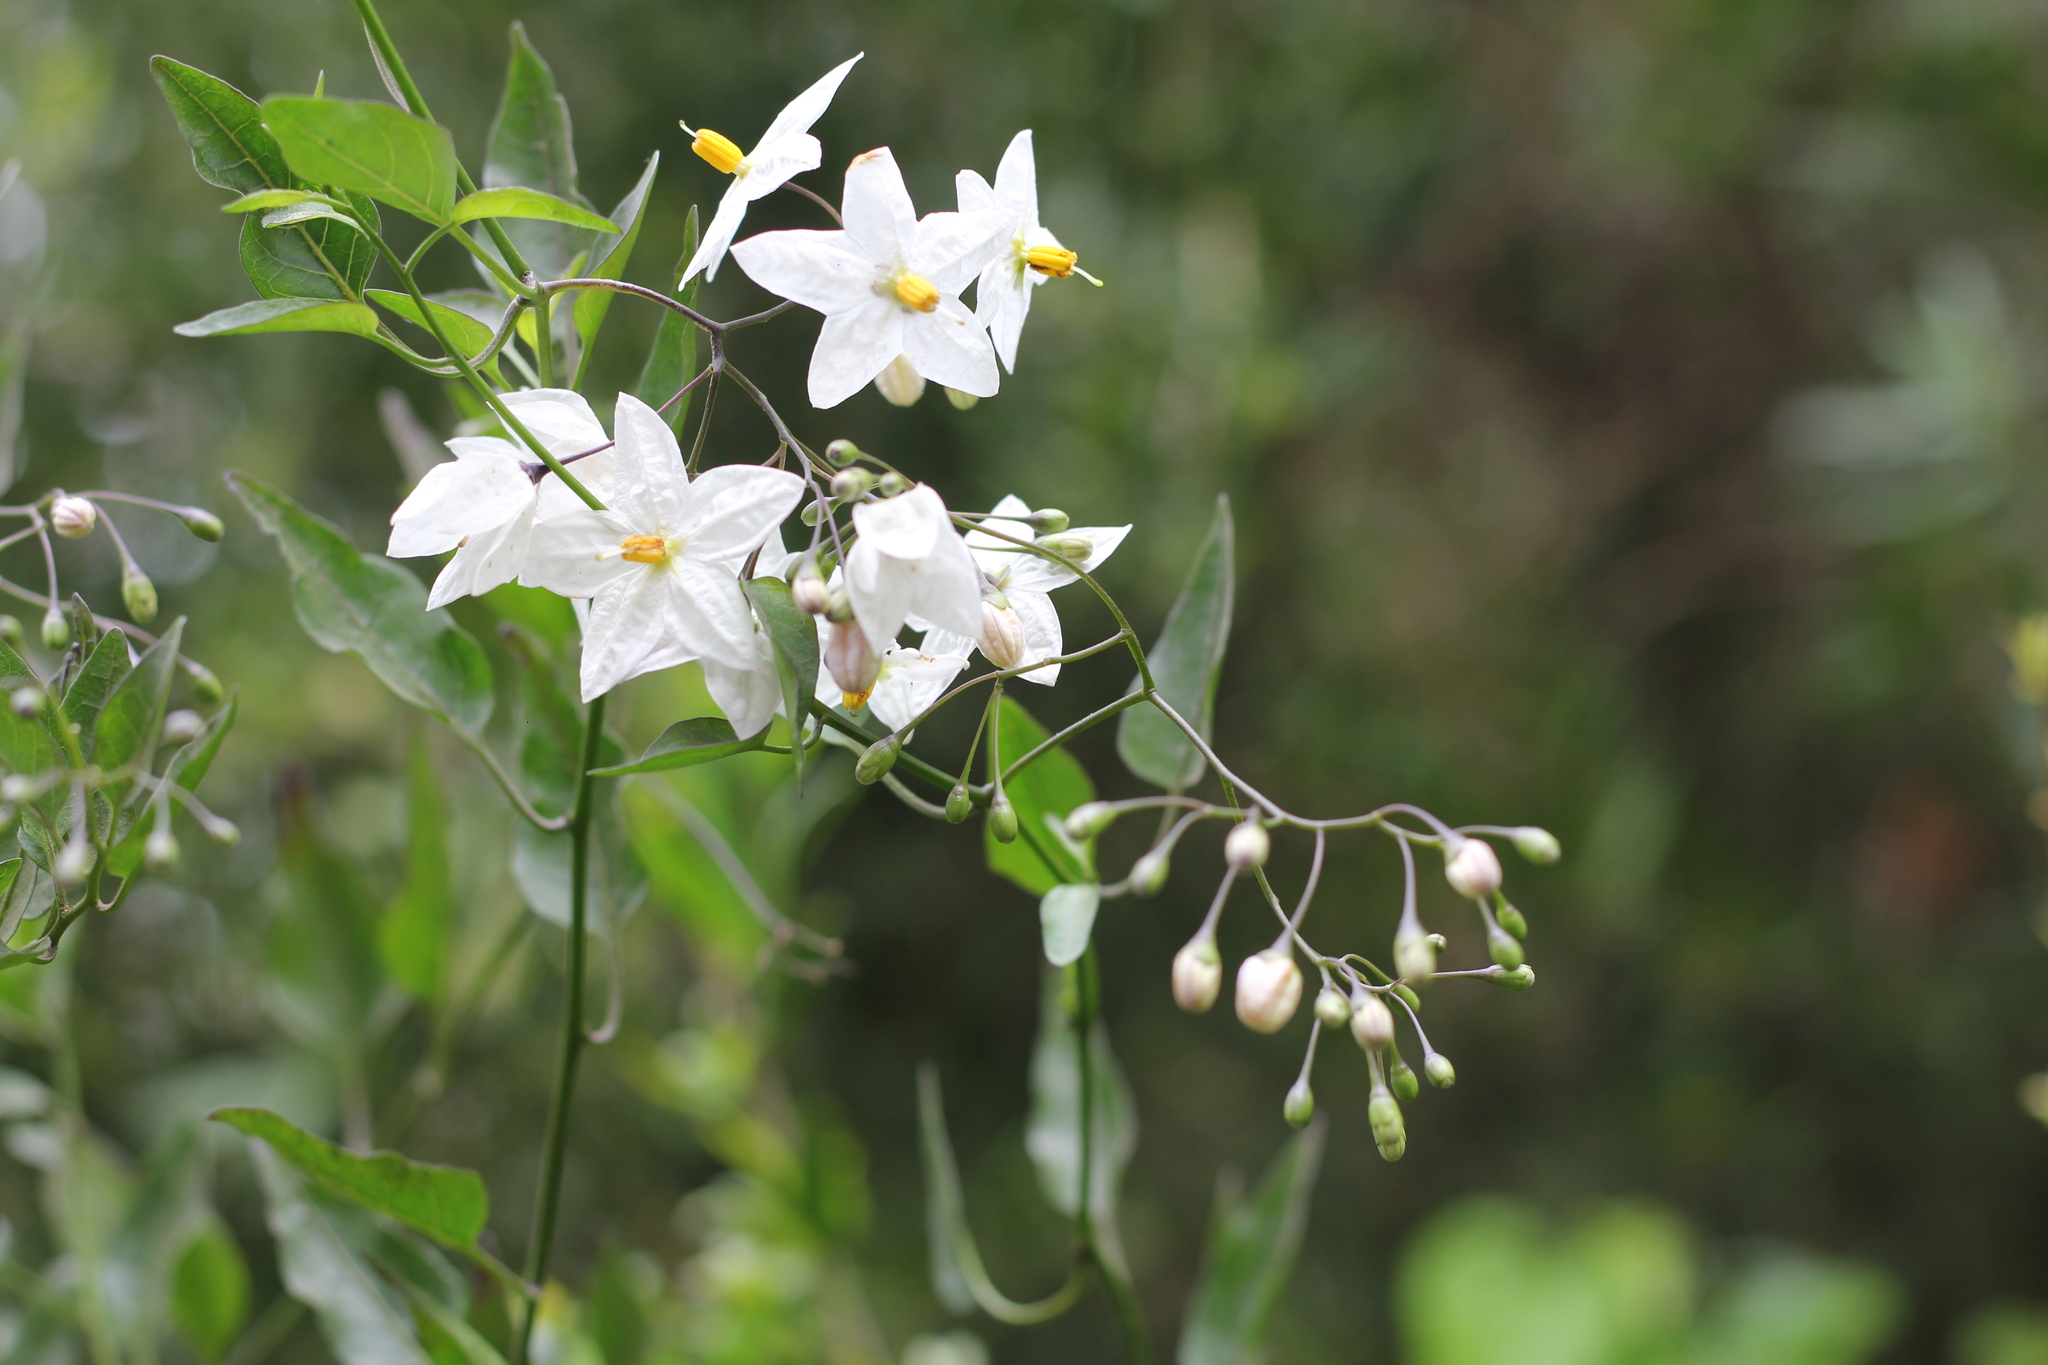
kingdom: Plantae
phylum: Tracheophyta
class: Magnoliopsida
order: Solanales
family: Solanaceae
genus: Solanum
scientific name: Solanum laxum
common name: Nightshade
